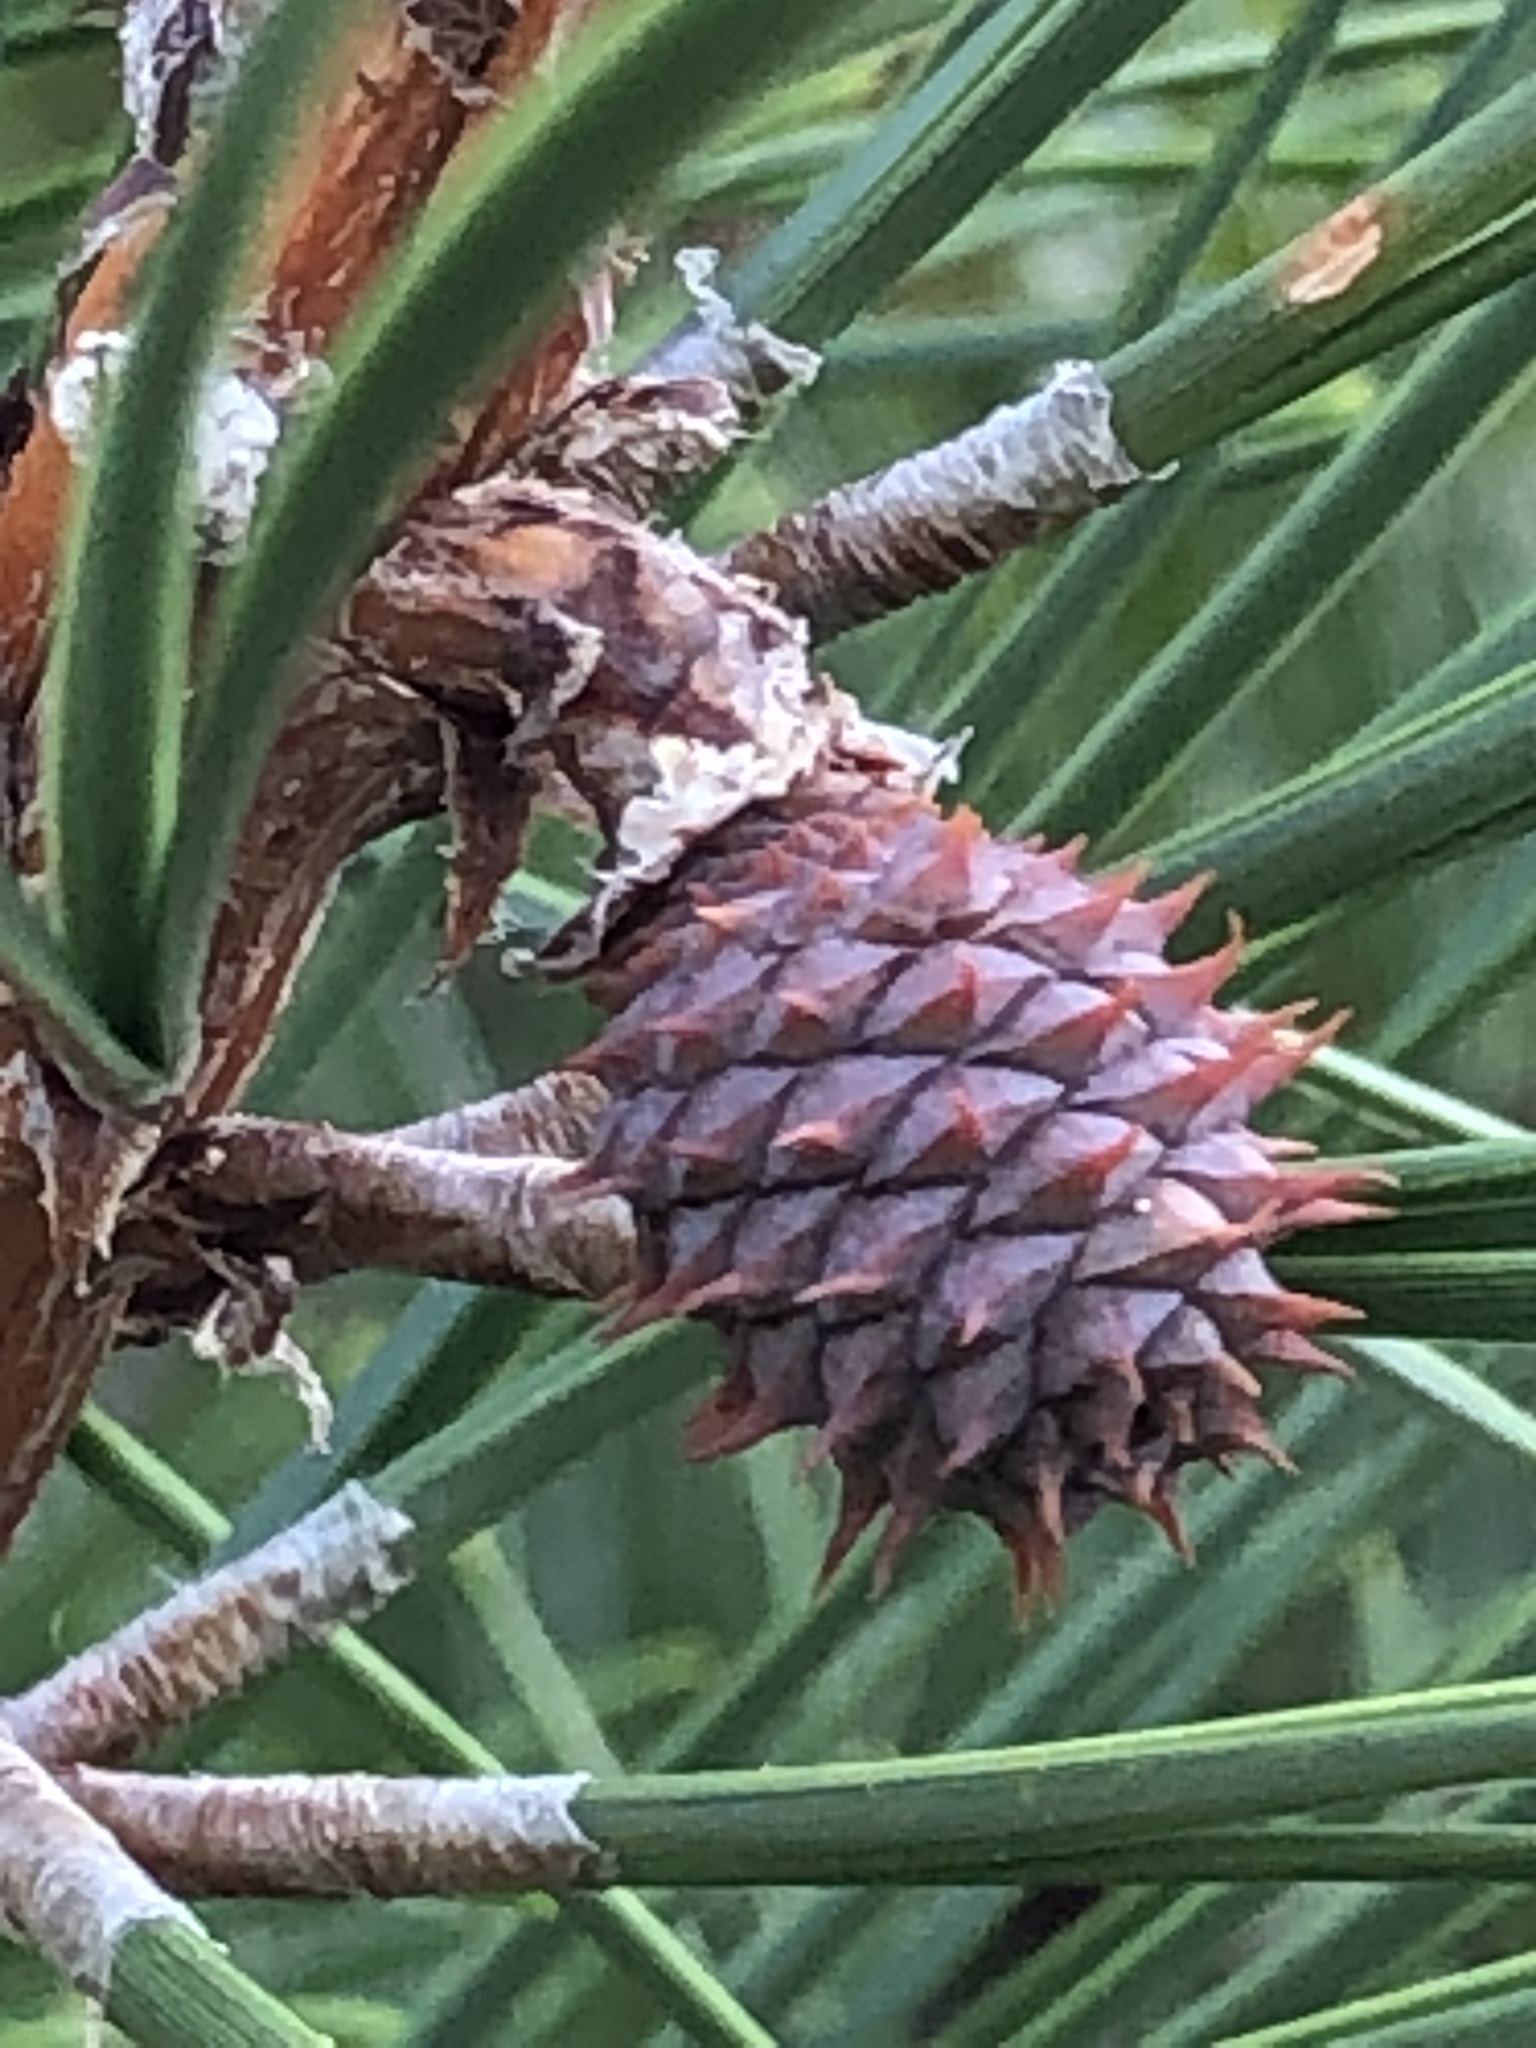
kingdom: Plantae
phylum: Tracheophyta
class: Pinopsida
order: Pinales
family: Pinaceae
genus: Pinus
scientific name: Pinus rigida
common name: Pitch pine
